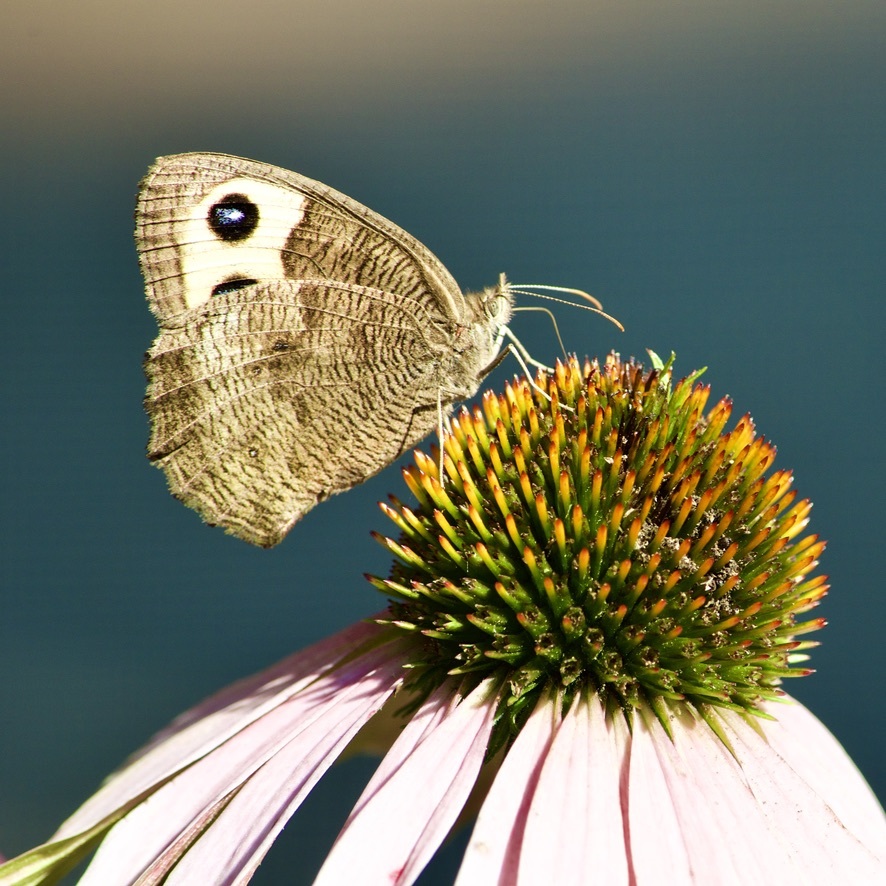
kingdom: Animalia
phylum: Arthropoda
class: Insecta
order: Lepidoptera
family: Nymphalidae
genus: Cercyonis
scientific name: Cercyonis pegala
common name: Common wood-nymph
